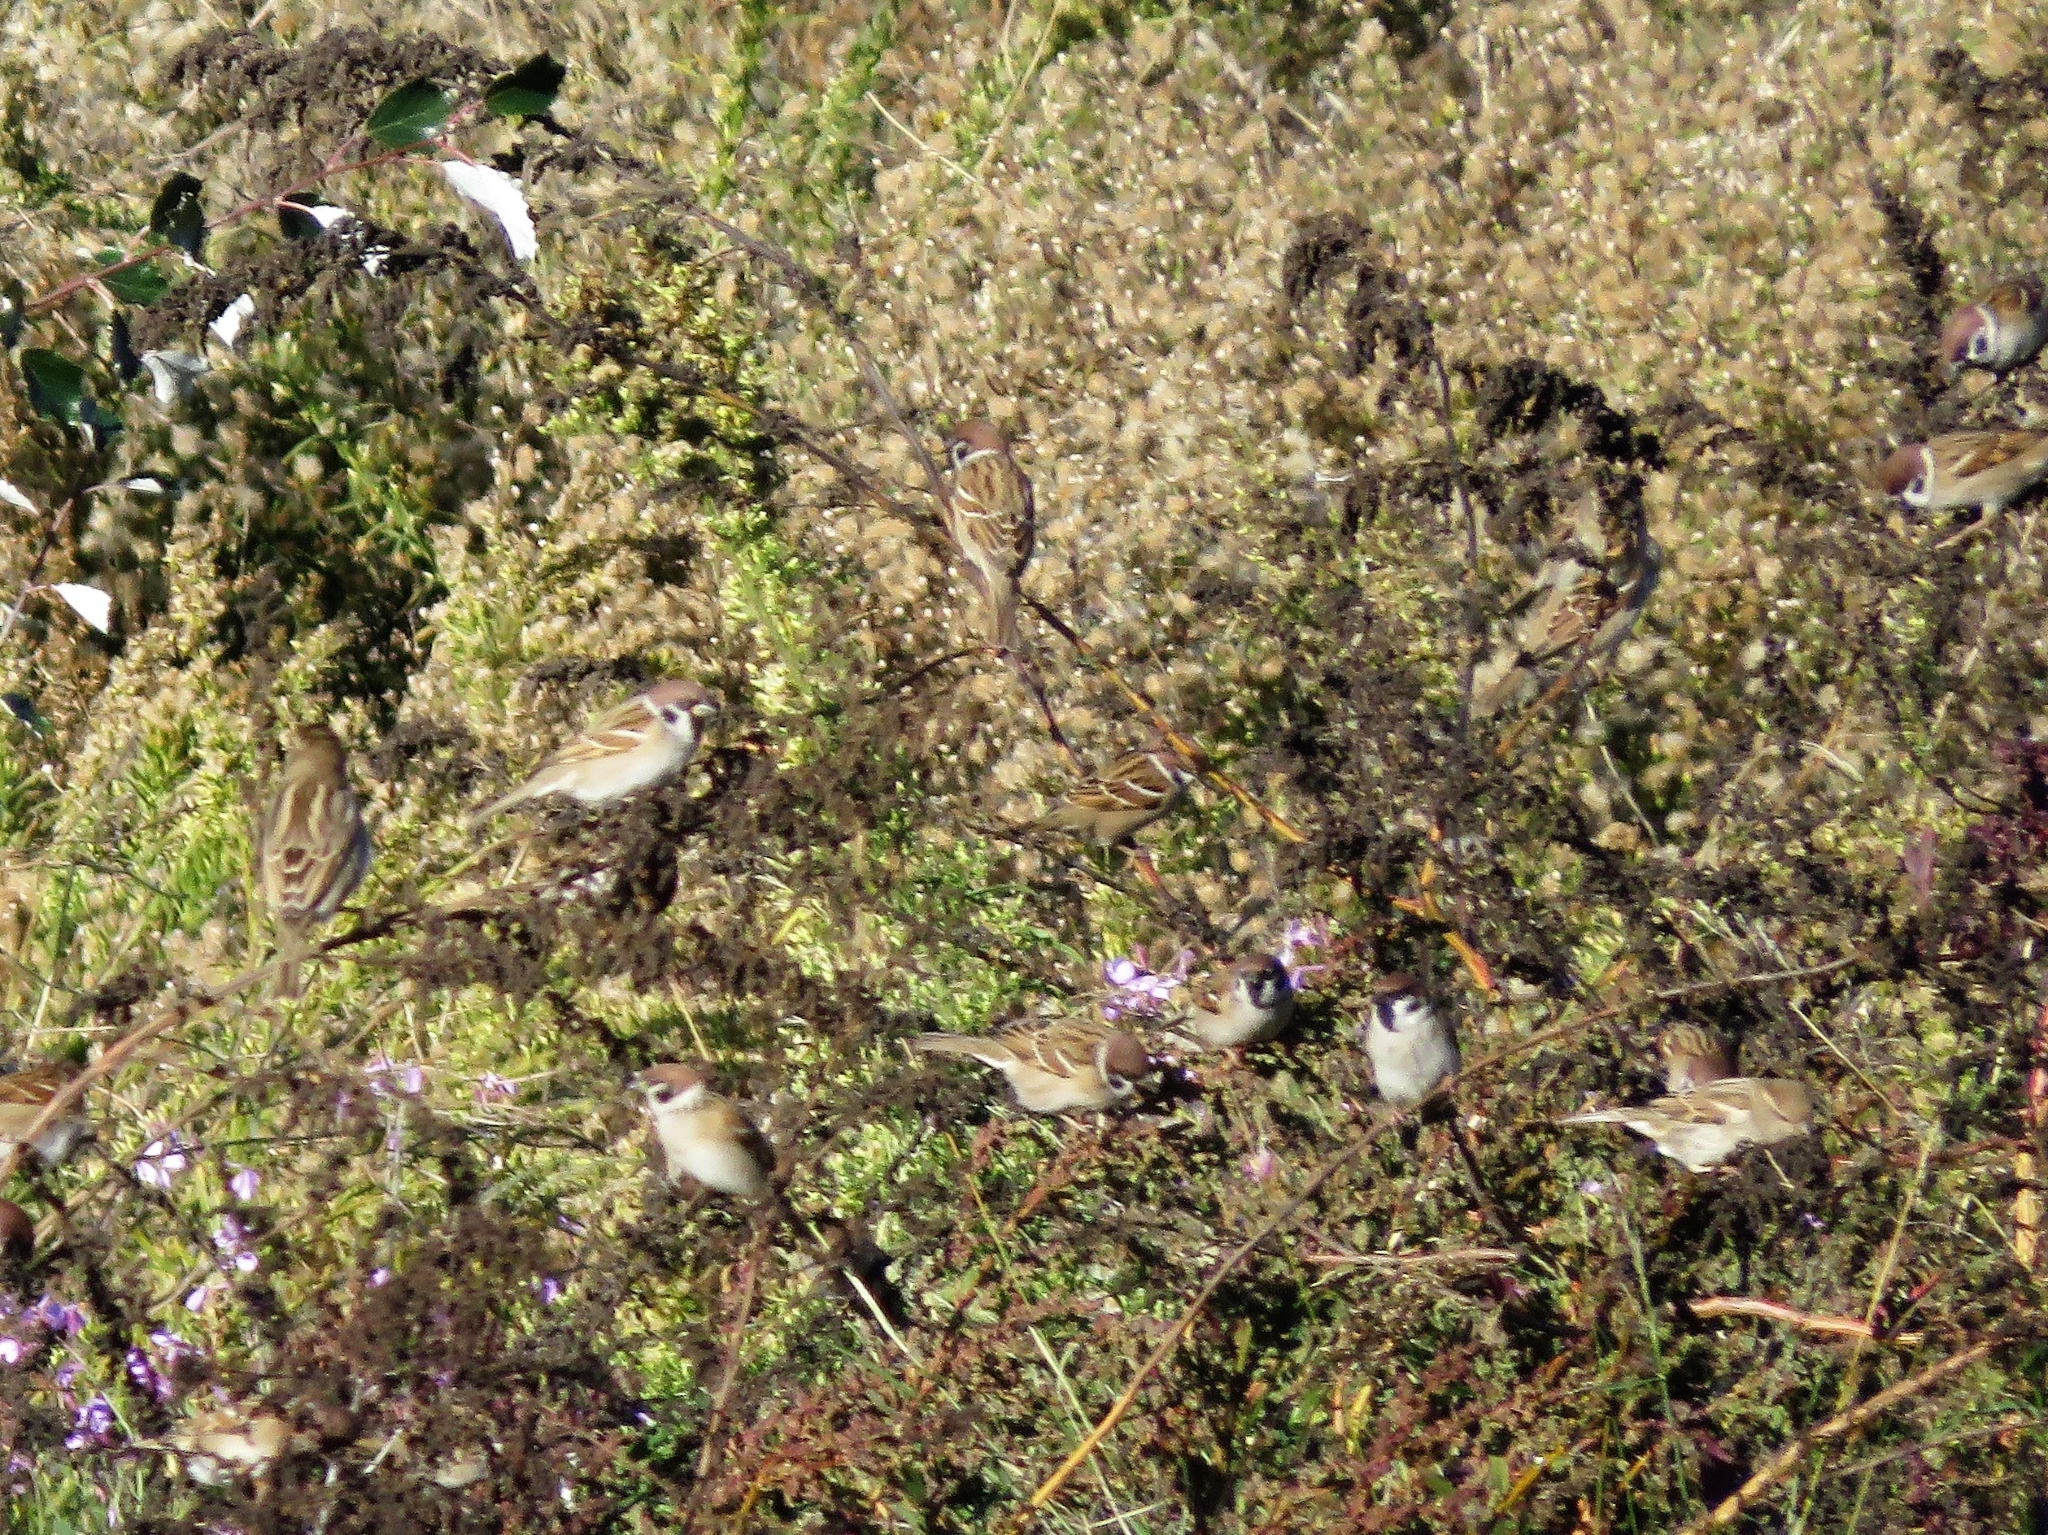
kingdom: Animalia
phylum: Chordata
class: Aves
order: Passeriformes
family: Passeridae
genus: Passer
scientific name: Passer montanus
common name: Eurasian tree sparrow
